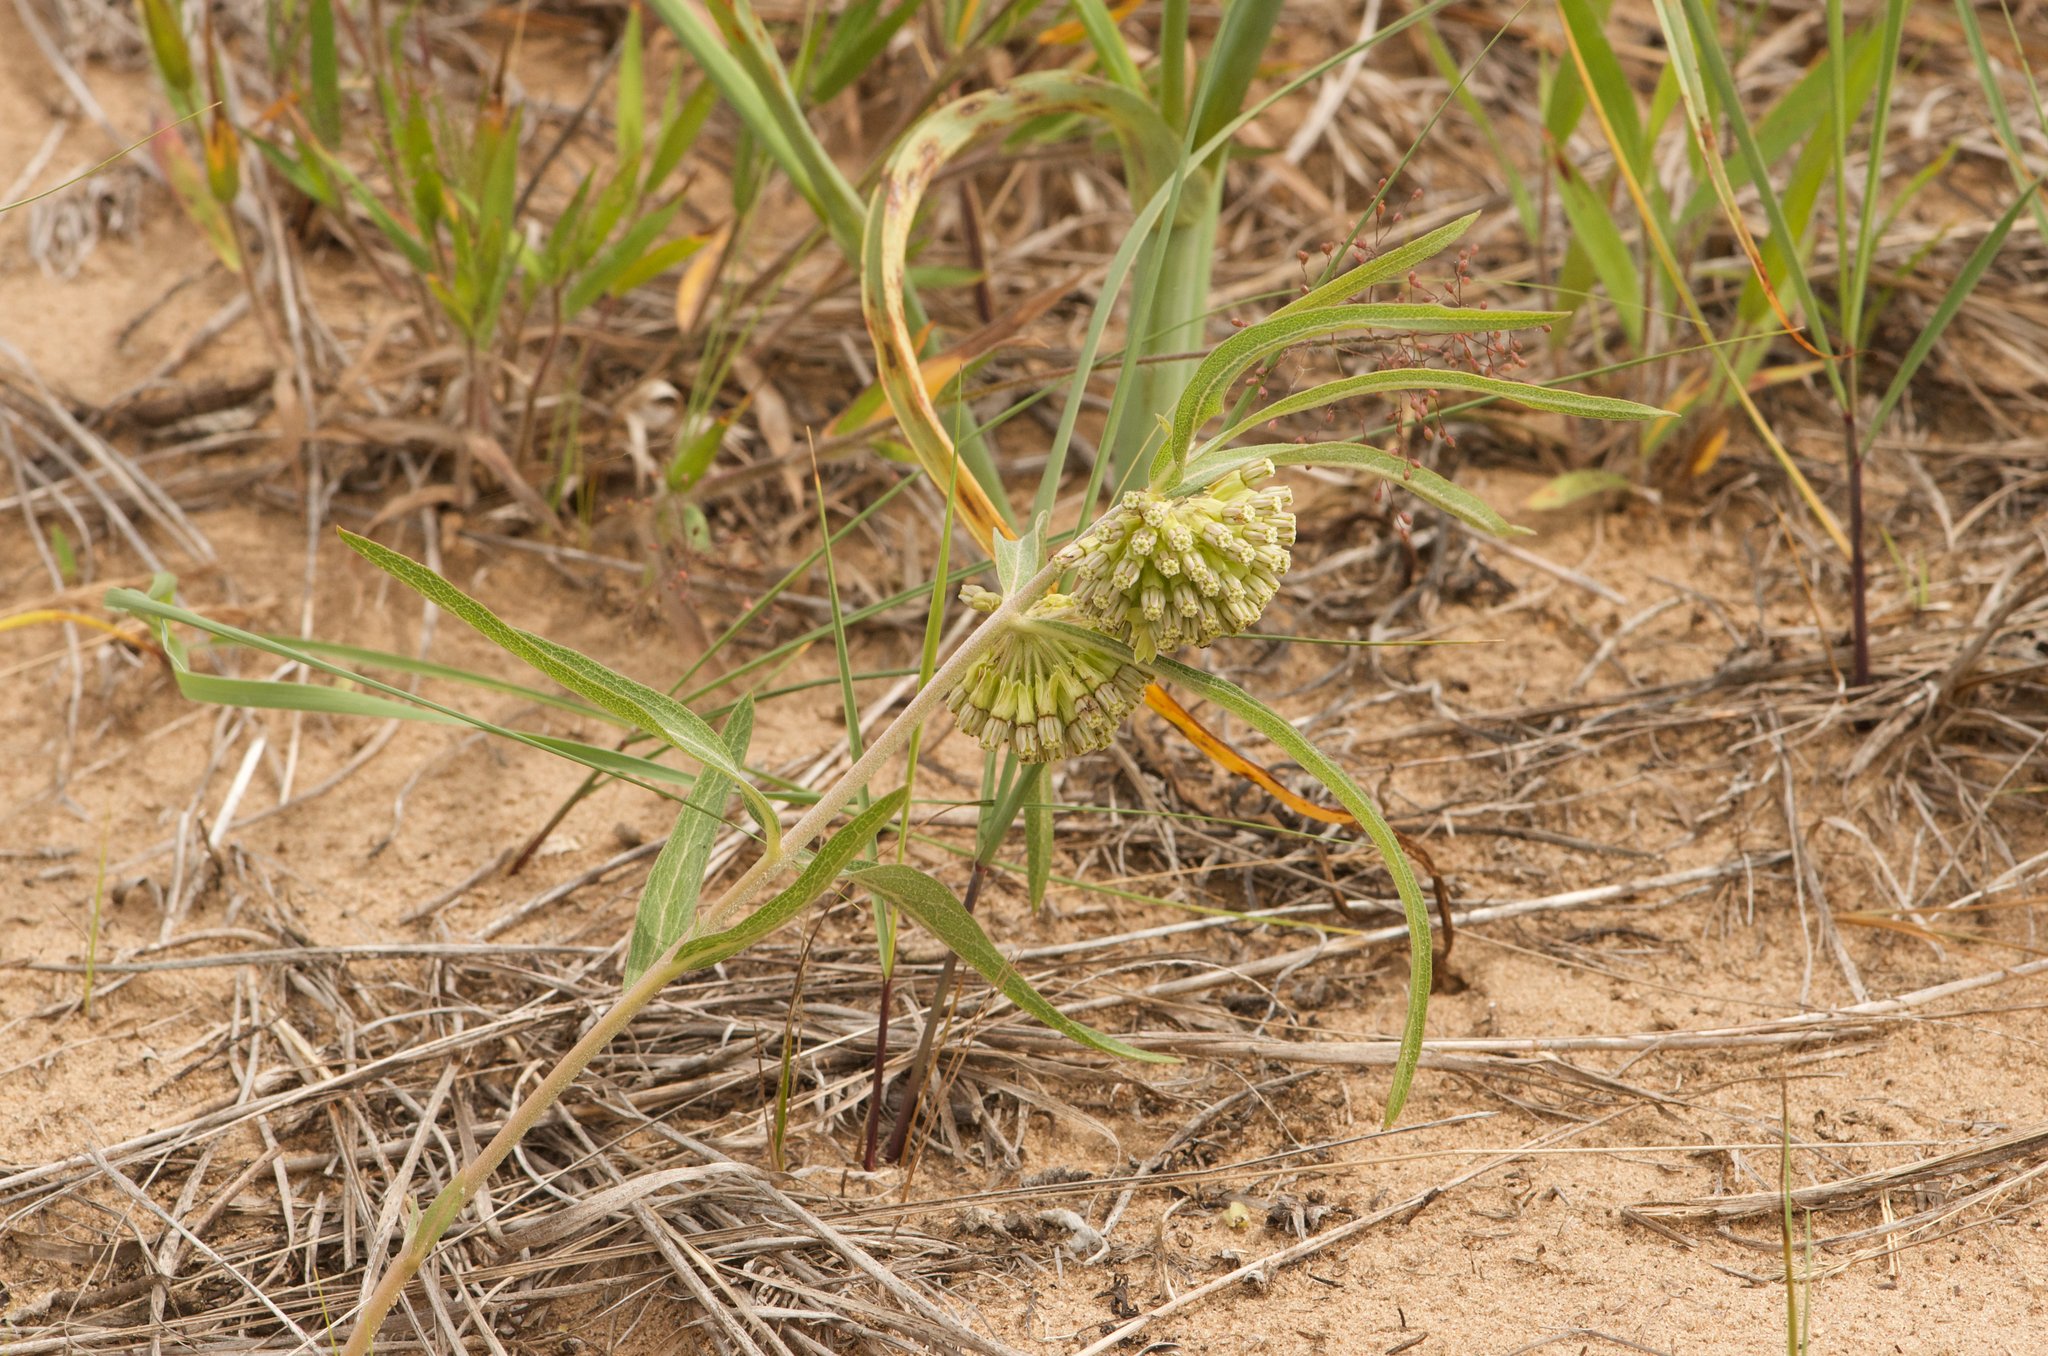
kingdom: Plantae
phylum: Tracheophyta
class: Magnoliopsida
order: Gentianales
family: Apocynaceae
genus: Asclepias
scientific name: Asclepias viridiflora
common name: Green comet milkweed
